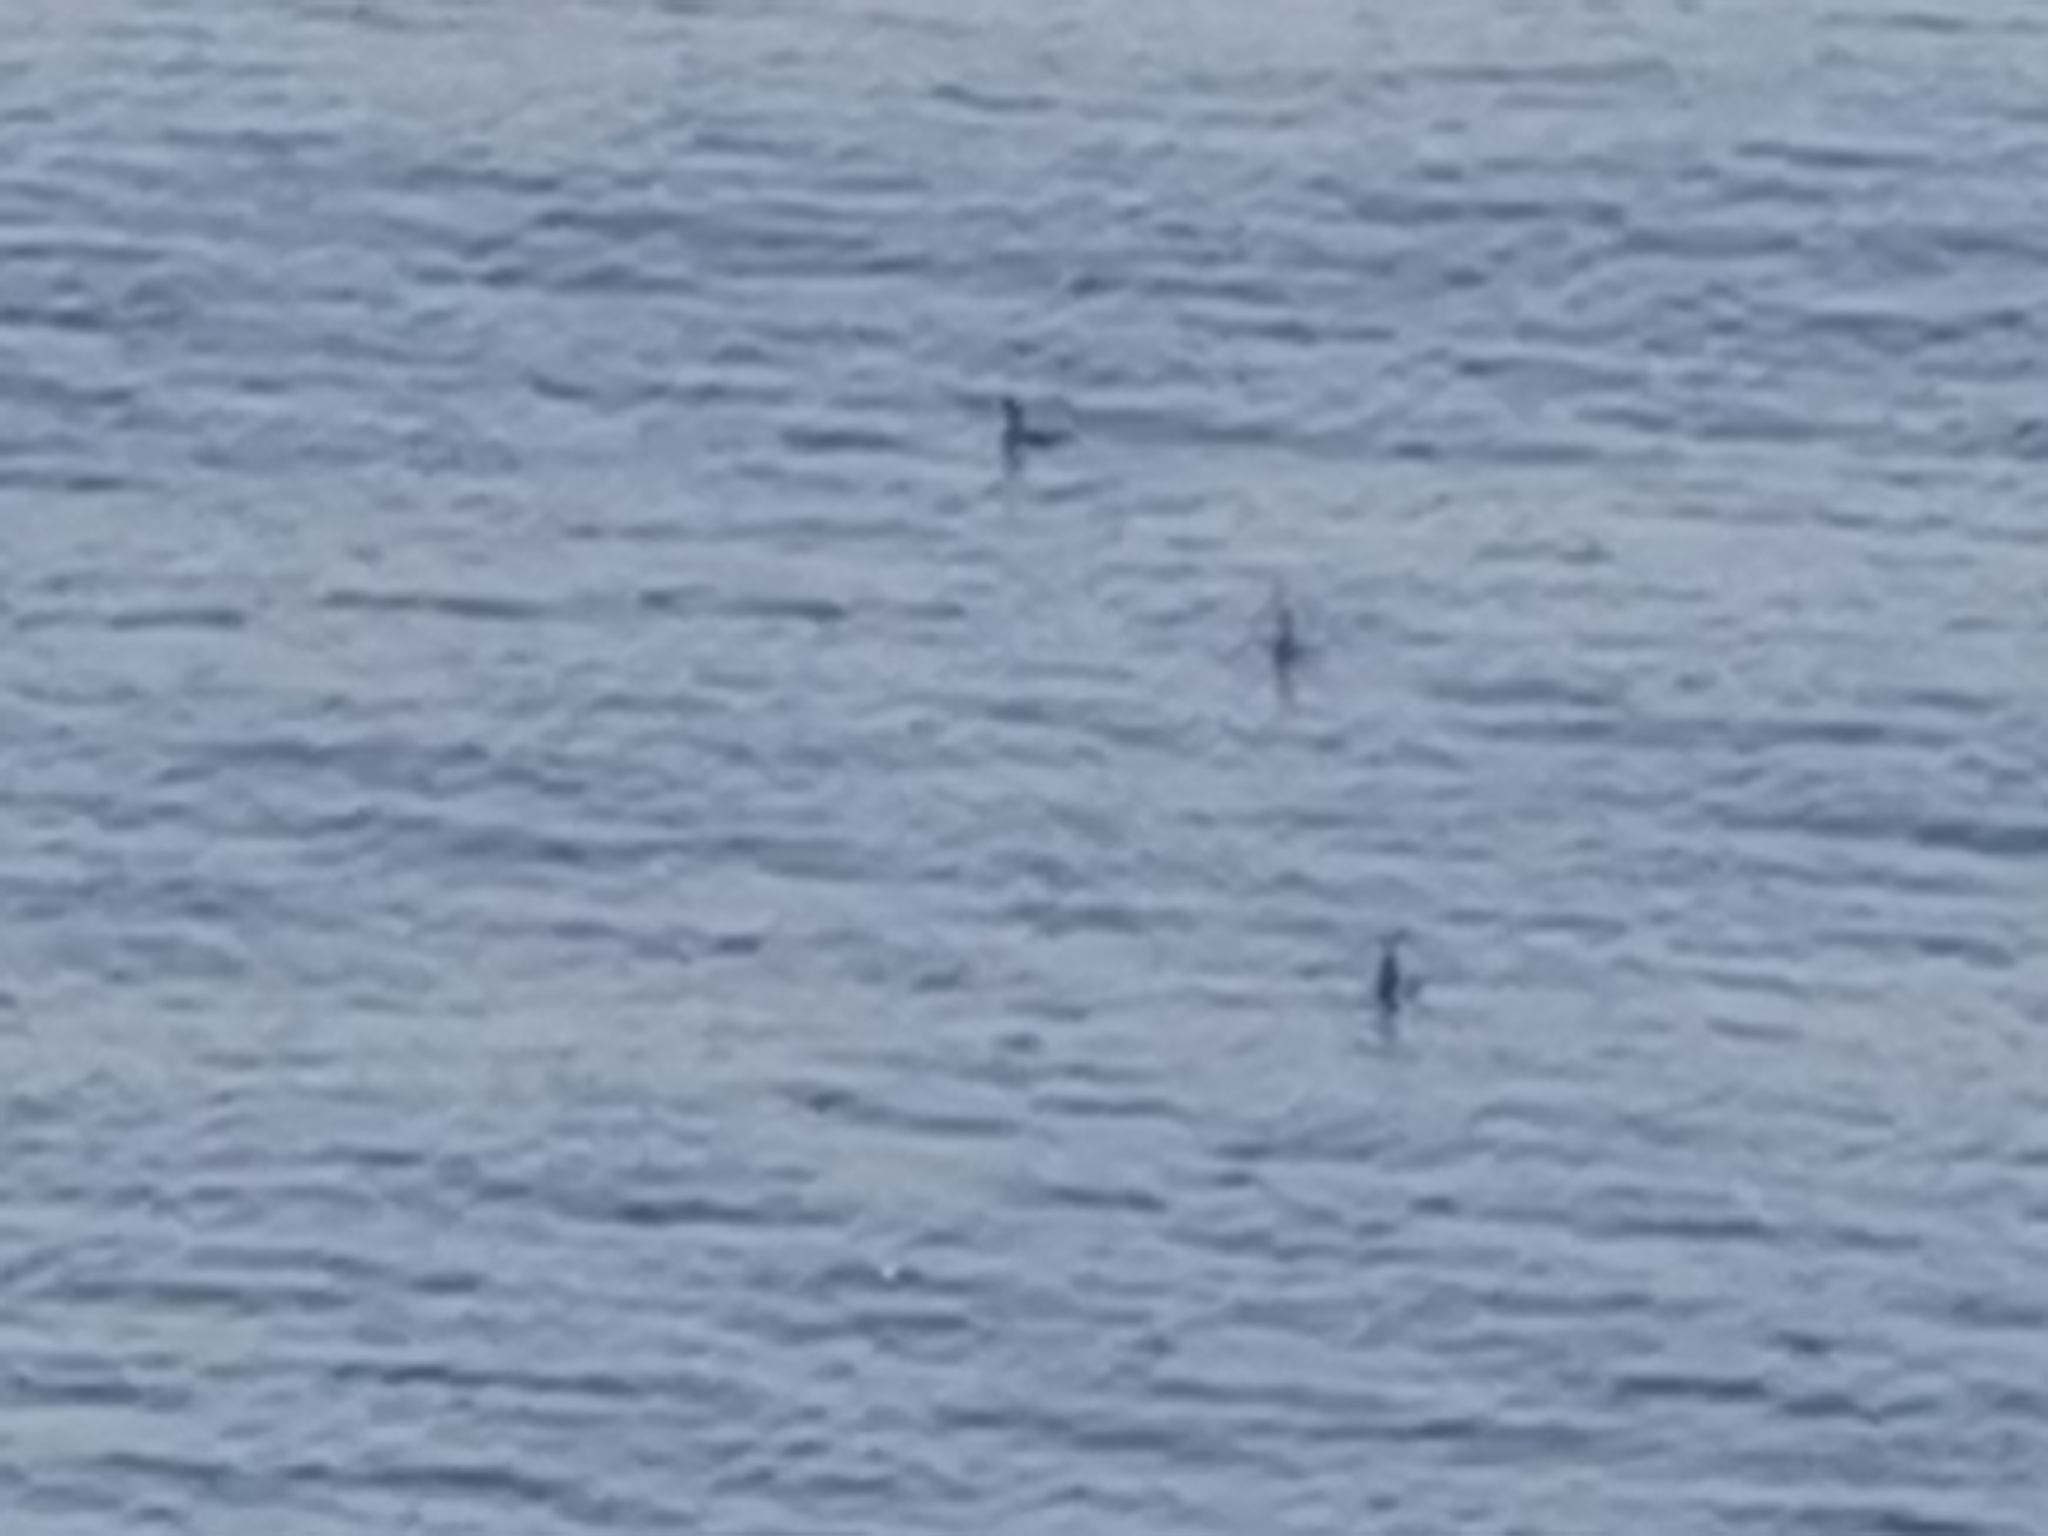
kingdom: Animalia
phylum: Chordata
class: Aves
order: Suliformes
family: Phalacrocoracidae
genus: Phalacrocorax
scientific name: Phalacrocorax aristotelis
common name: European shag
